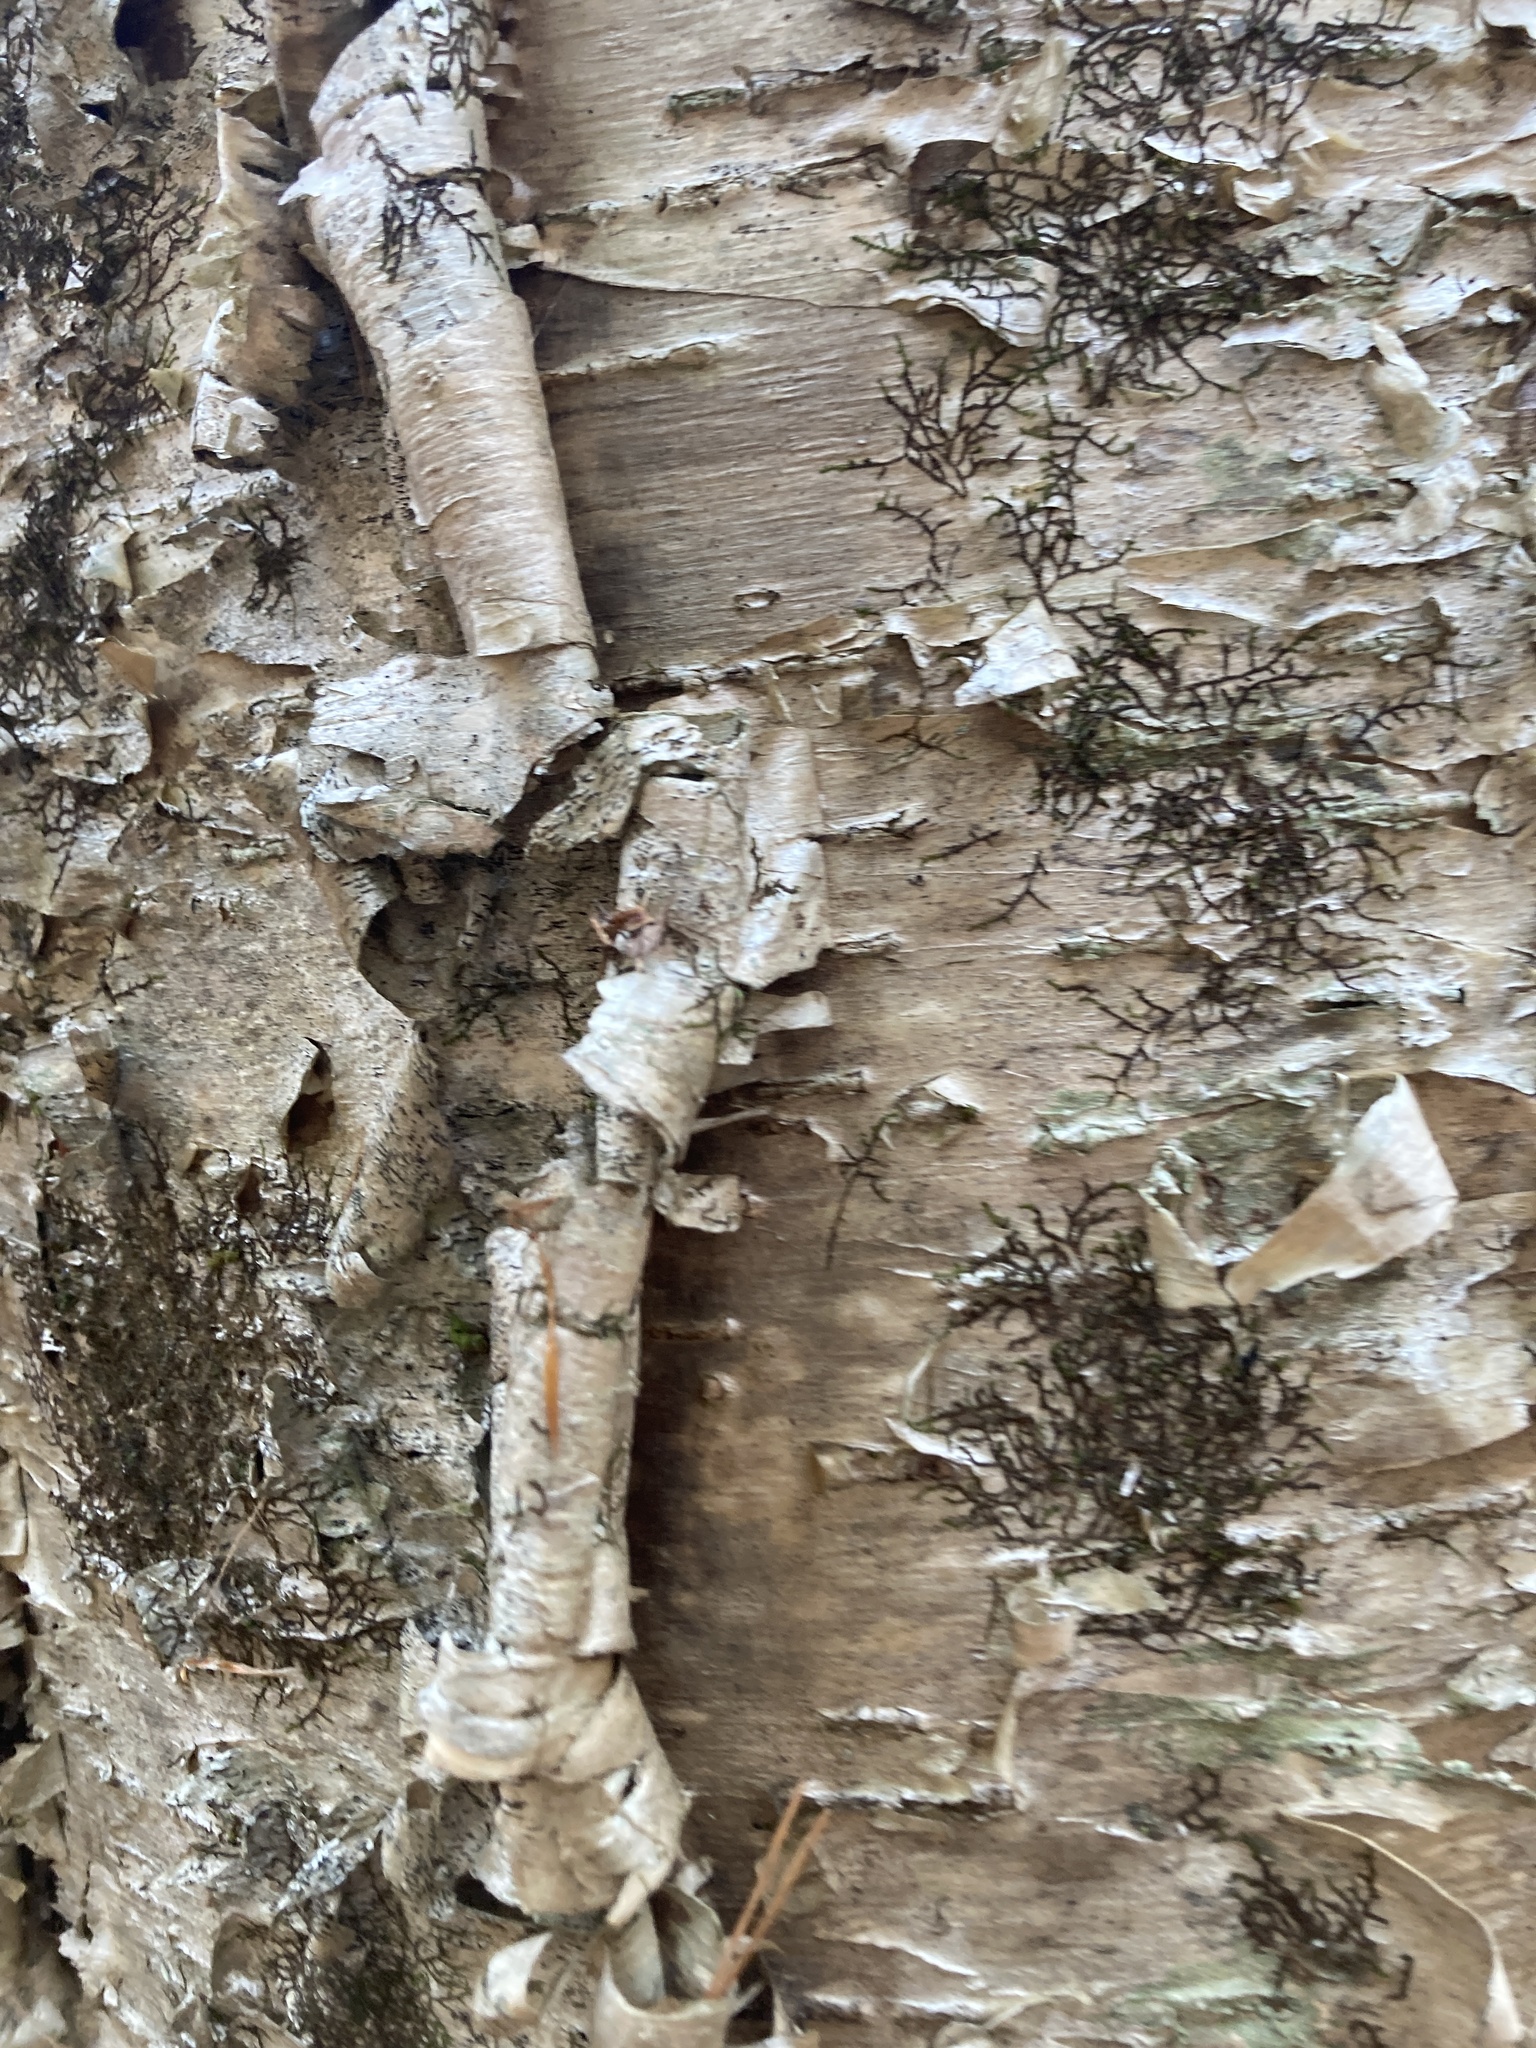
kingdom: Plantae
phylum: Tracheophyta
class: Magnoliopsida
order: Fagales
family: Betulaceae
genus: Betula
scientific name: Betula alleghaniensis
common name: Yellow birch
